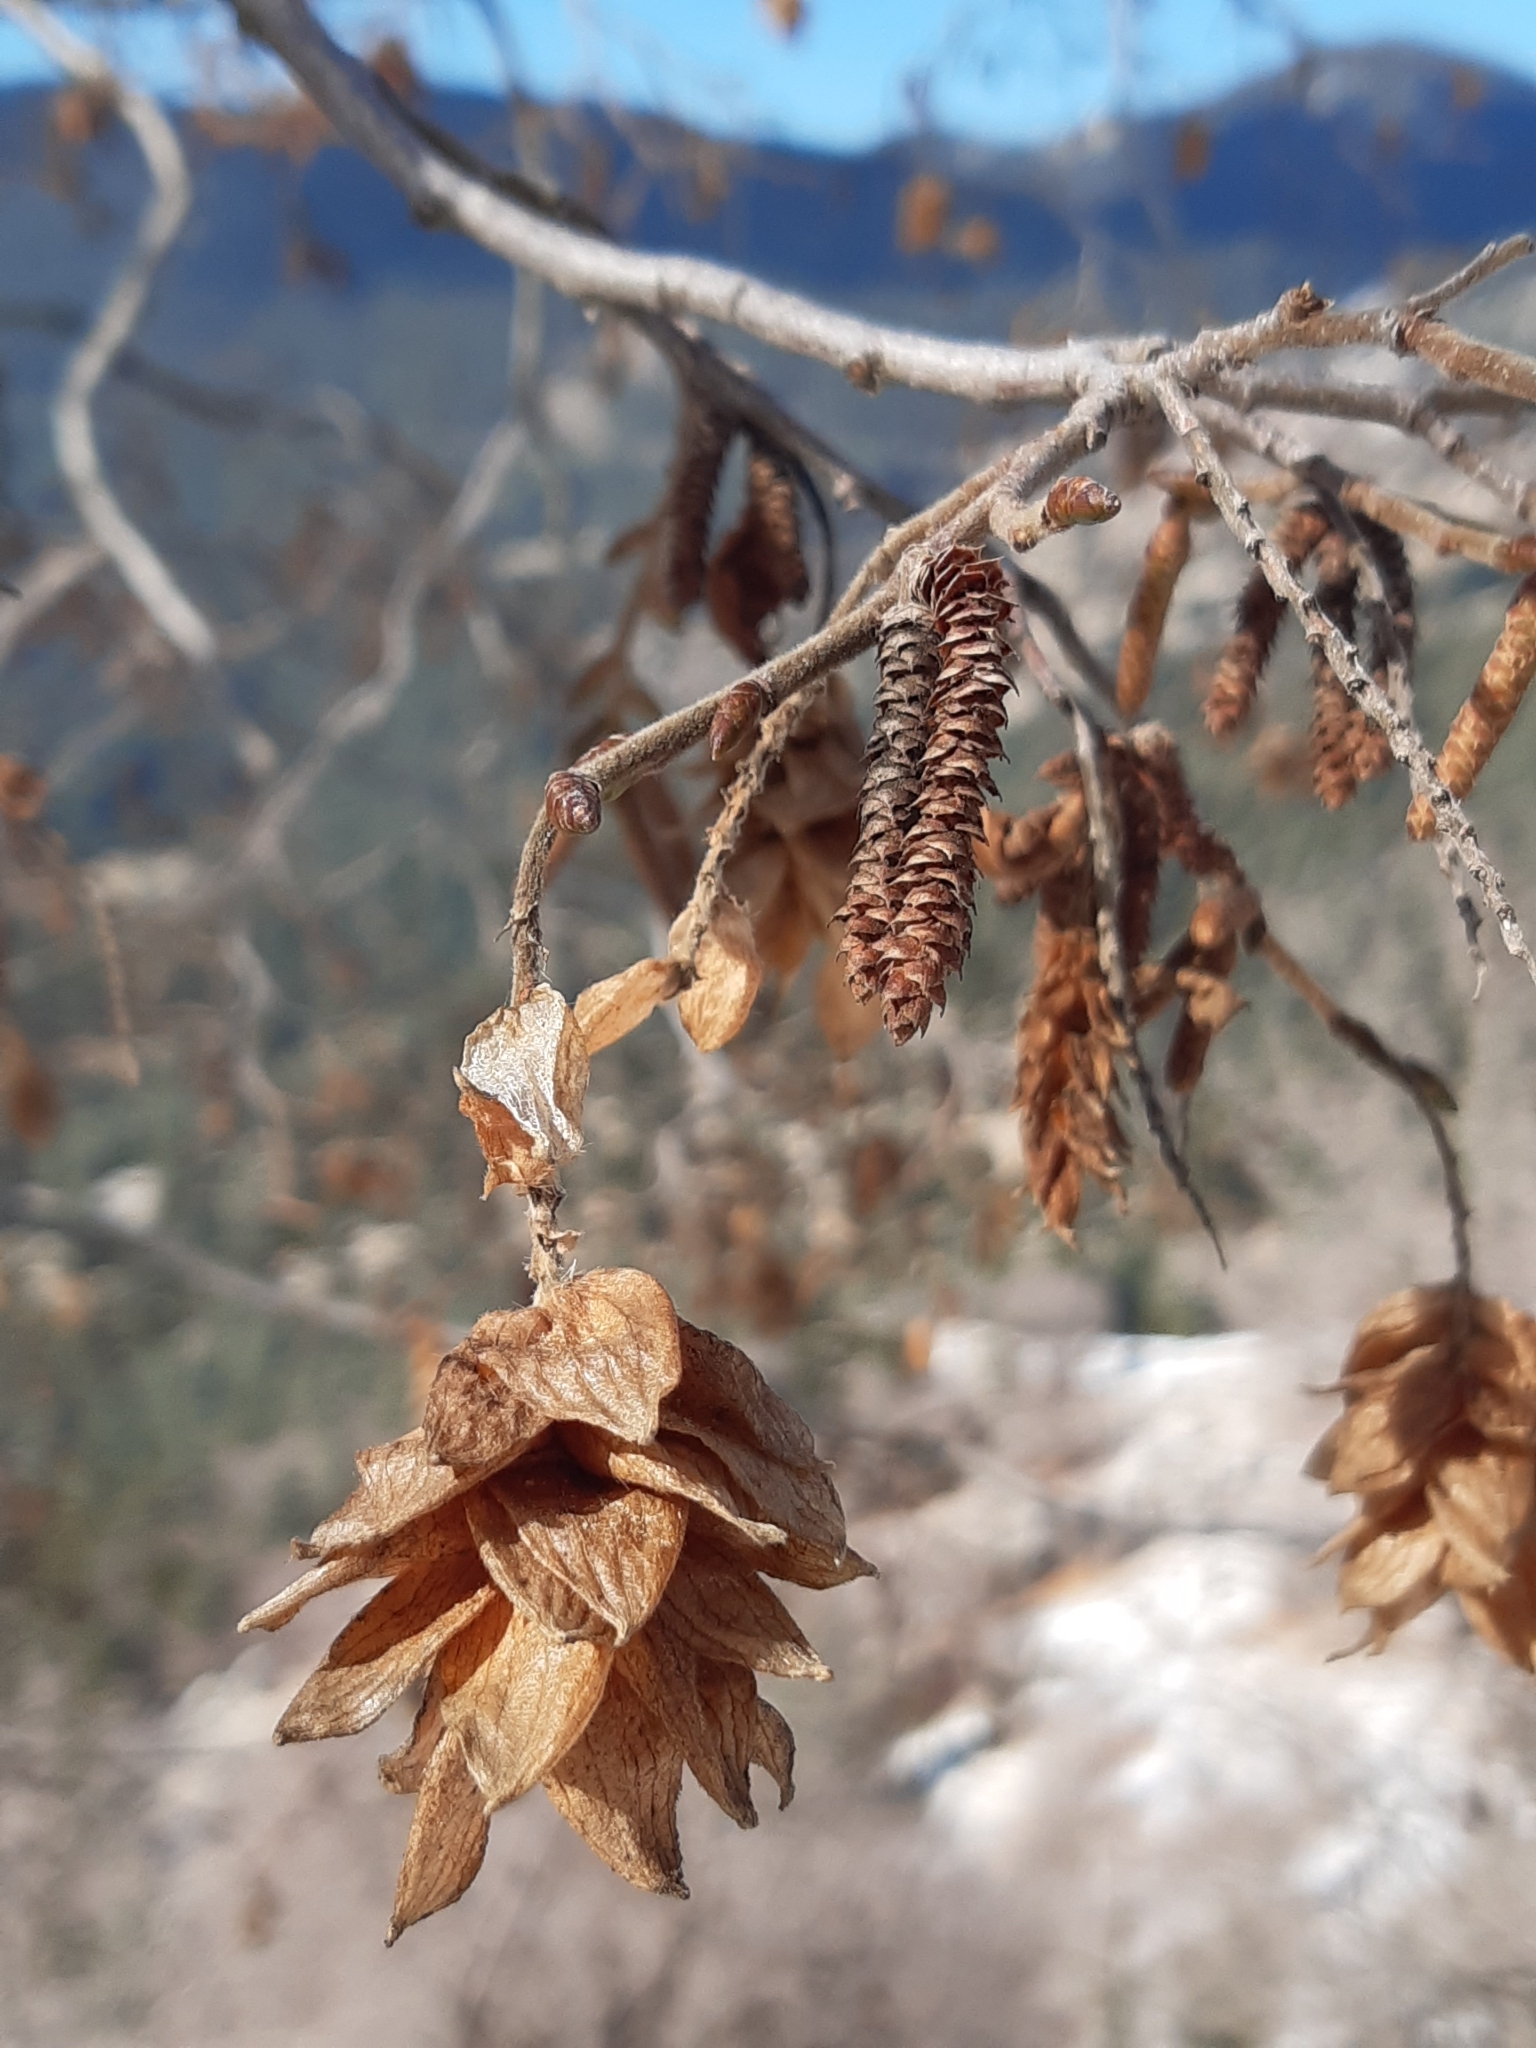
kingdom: Plantae
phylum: Tracheophyta
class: Magnoliopsida
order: Fagales
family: Betulaceae
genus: Ostrya
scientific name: Ostrya carpinifolia
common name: European hop-hornbeam
